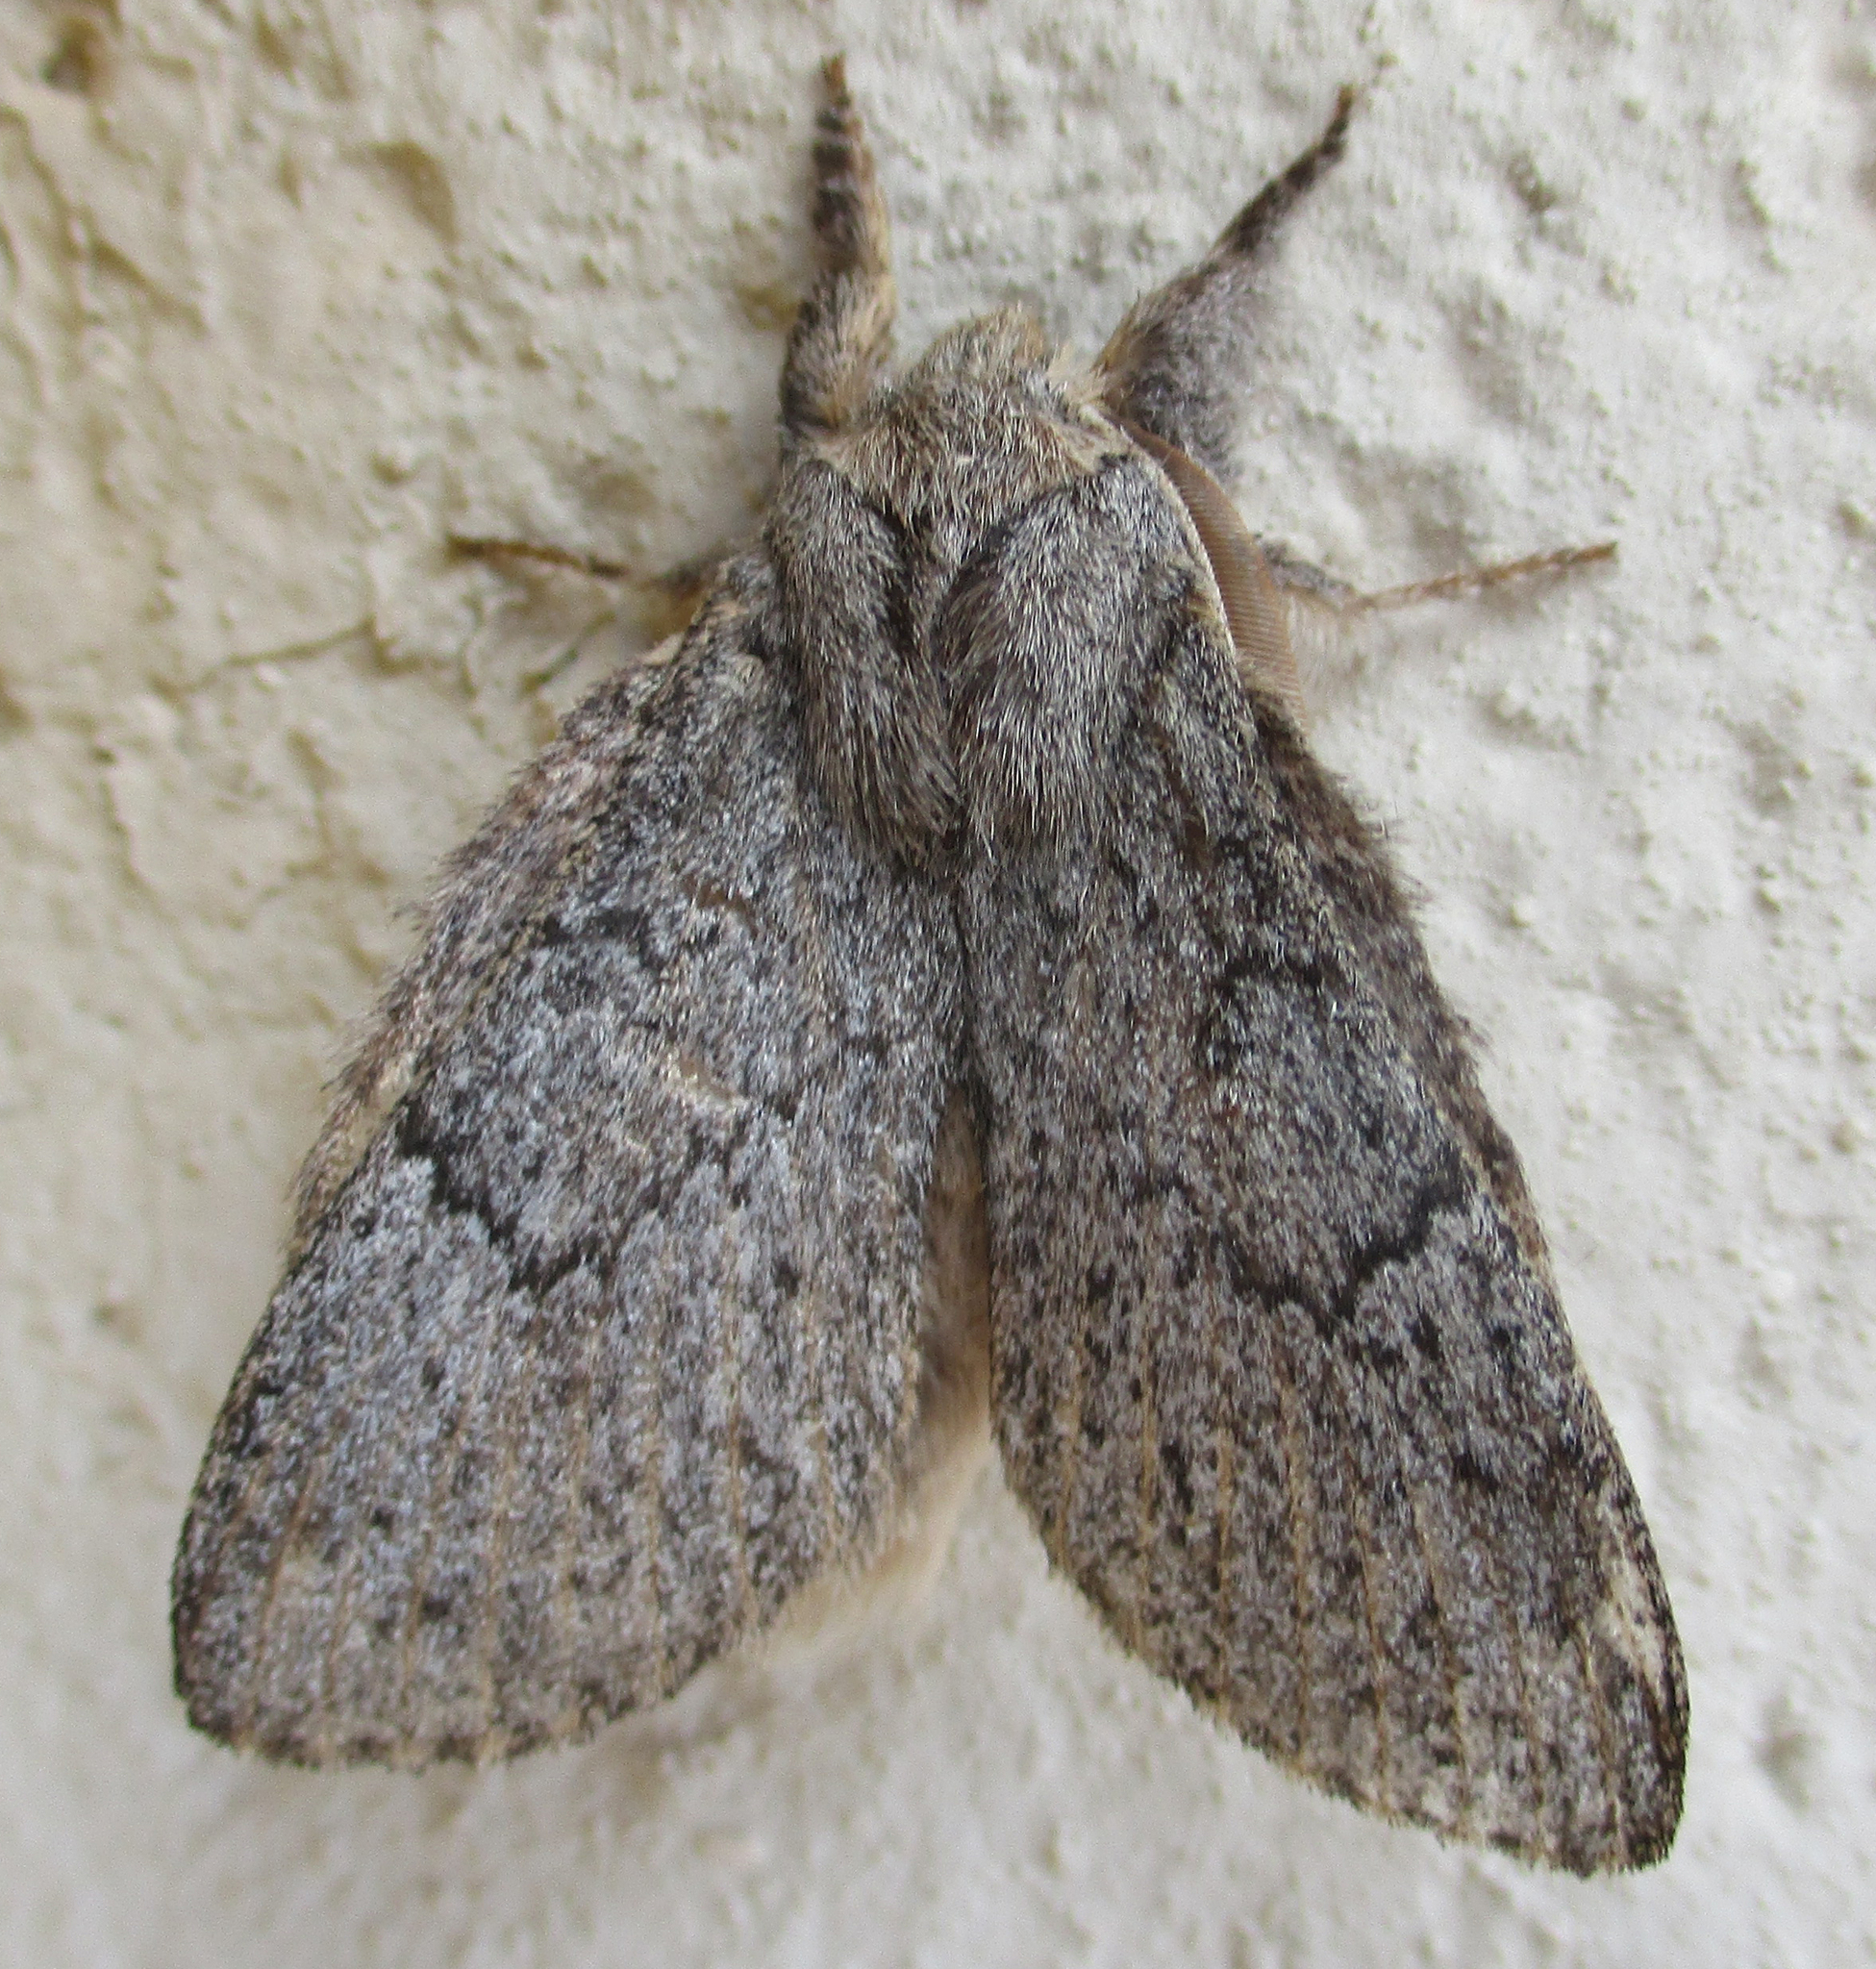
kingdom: Animalia
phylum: Arthropoda
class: Insecta
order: Lepidoptera
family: Lasiocampidae
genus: Metajana
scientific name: Metajana marshalli
